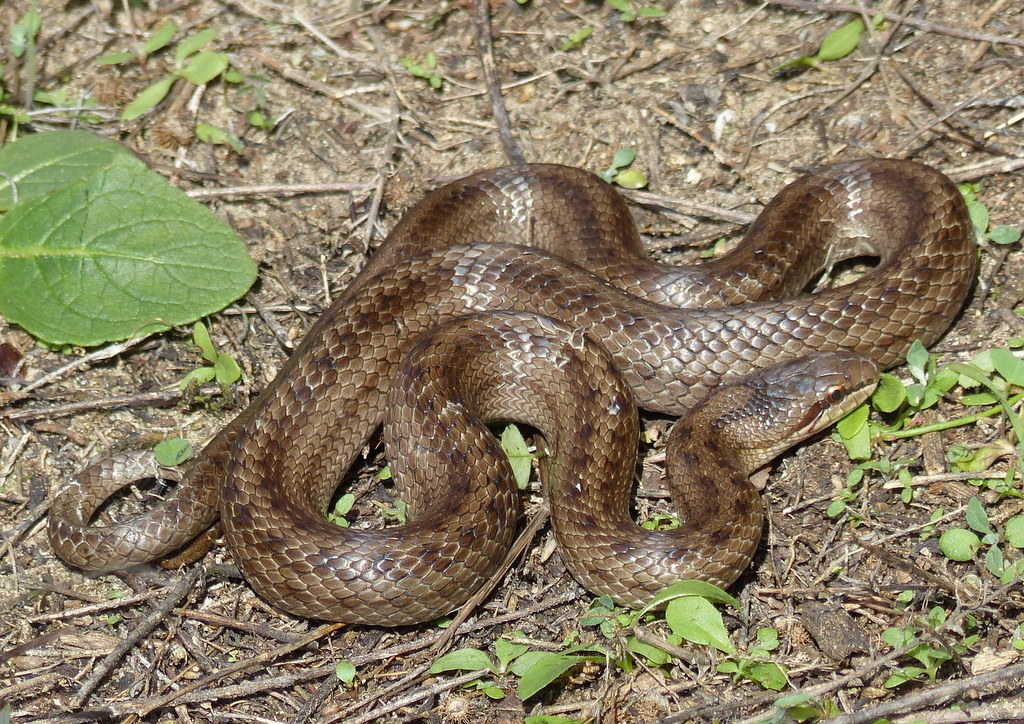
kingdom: Animalia
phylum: Chordata
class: Squamata
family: Colubridae
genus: Coronella
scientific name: Coronella austriaca
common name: Smooth snake
